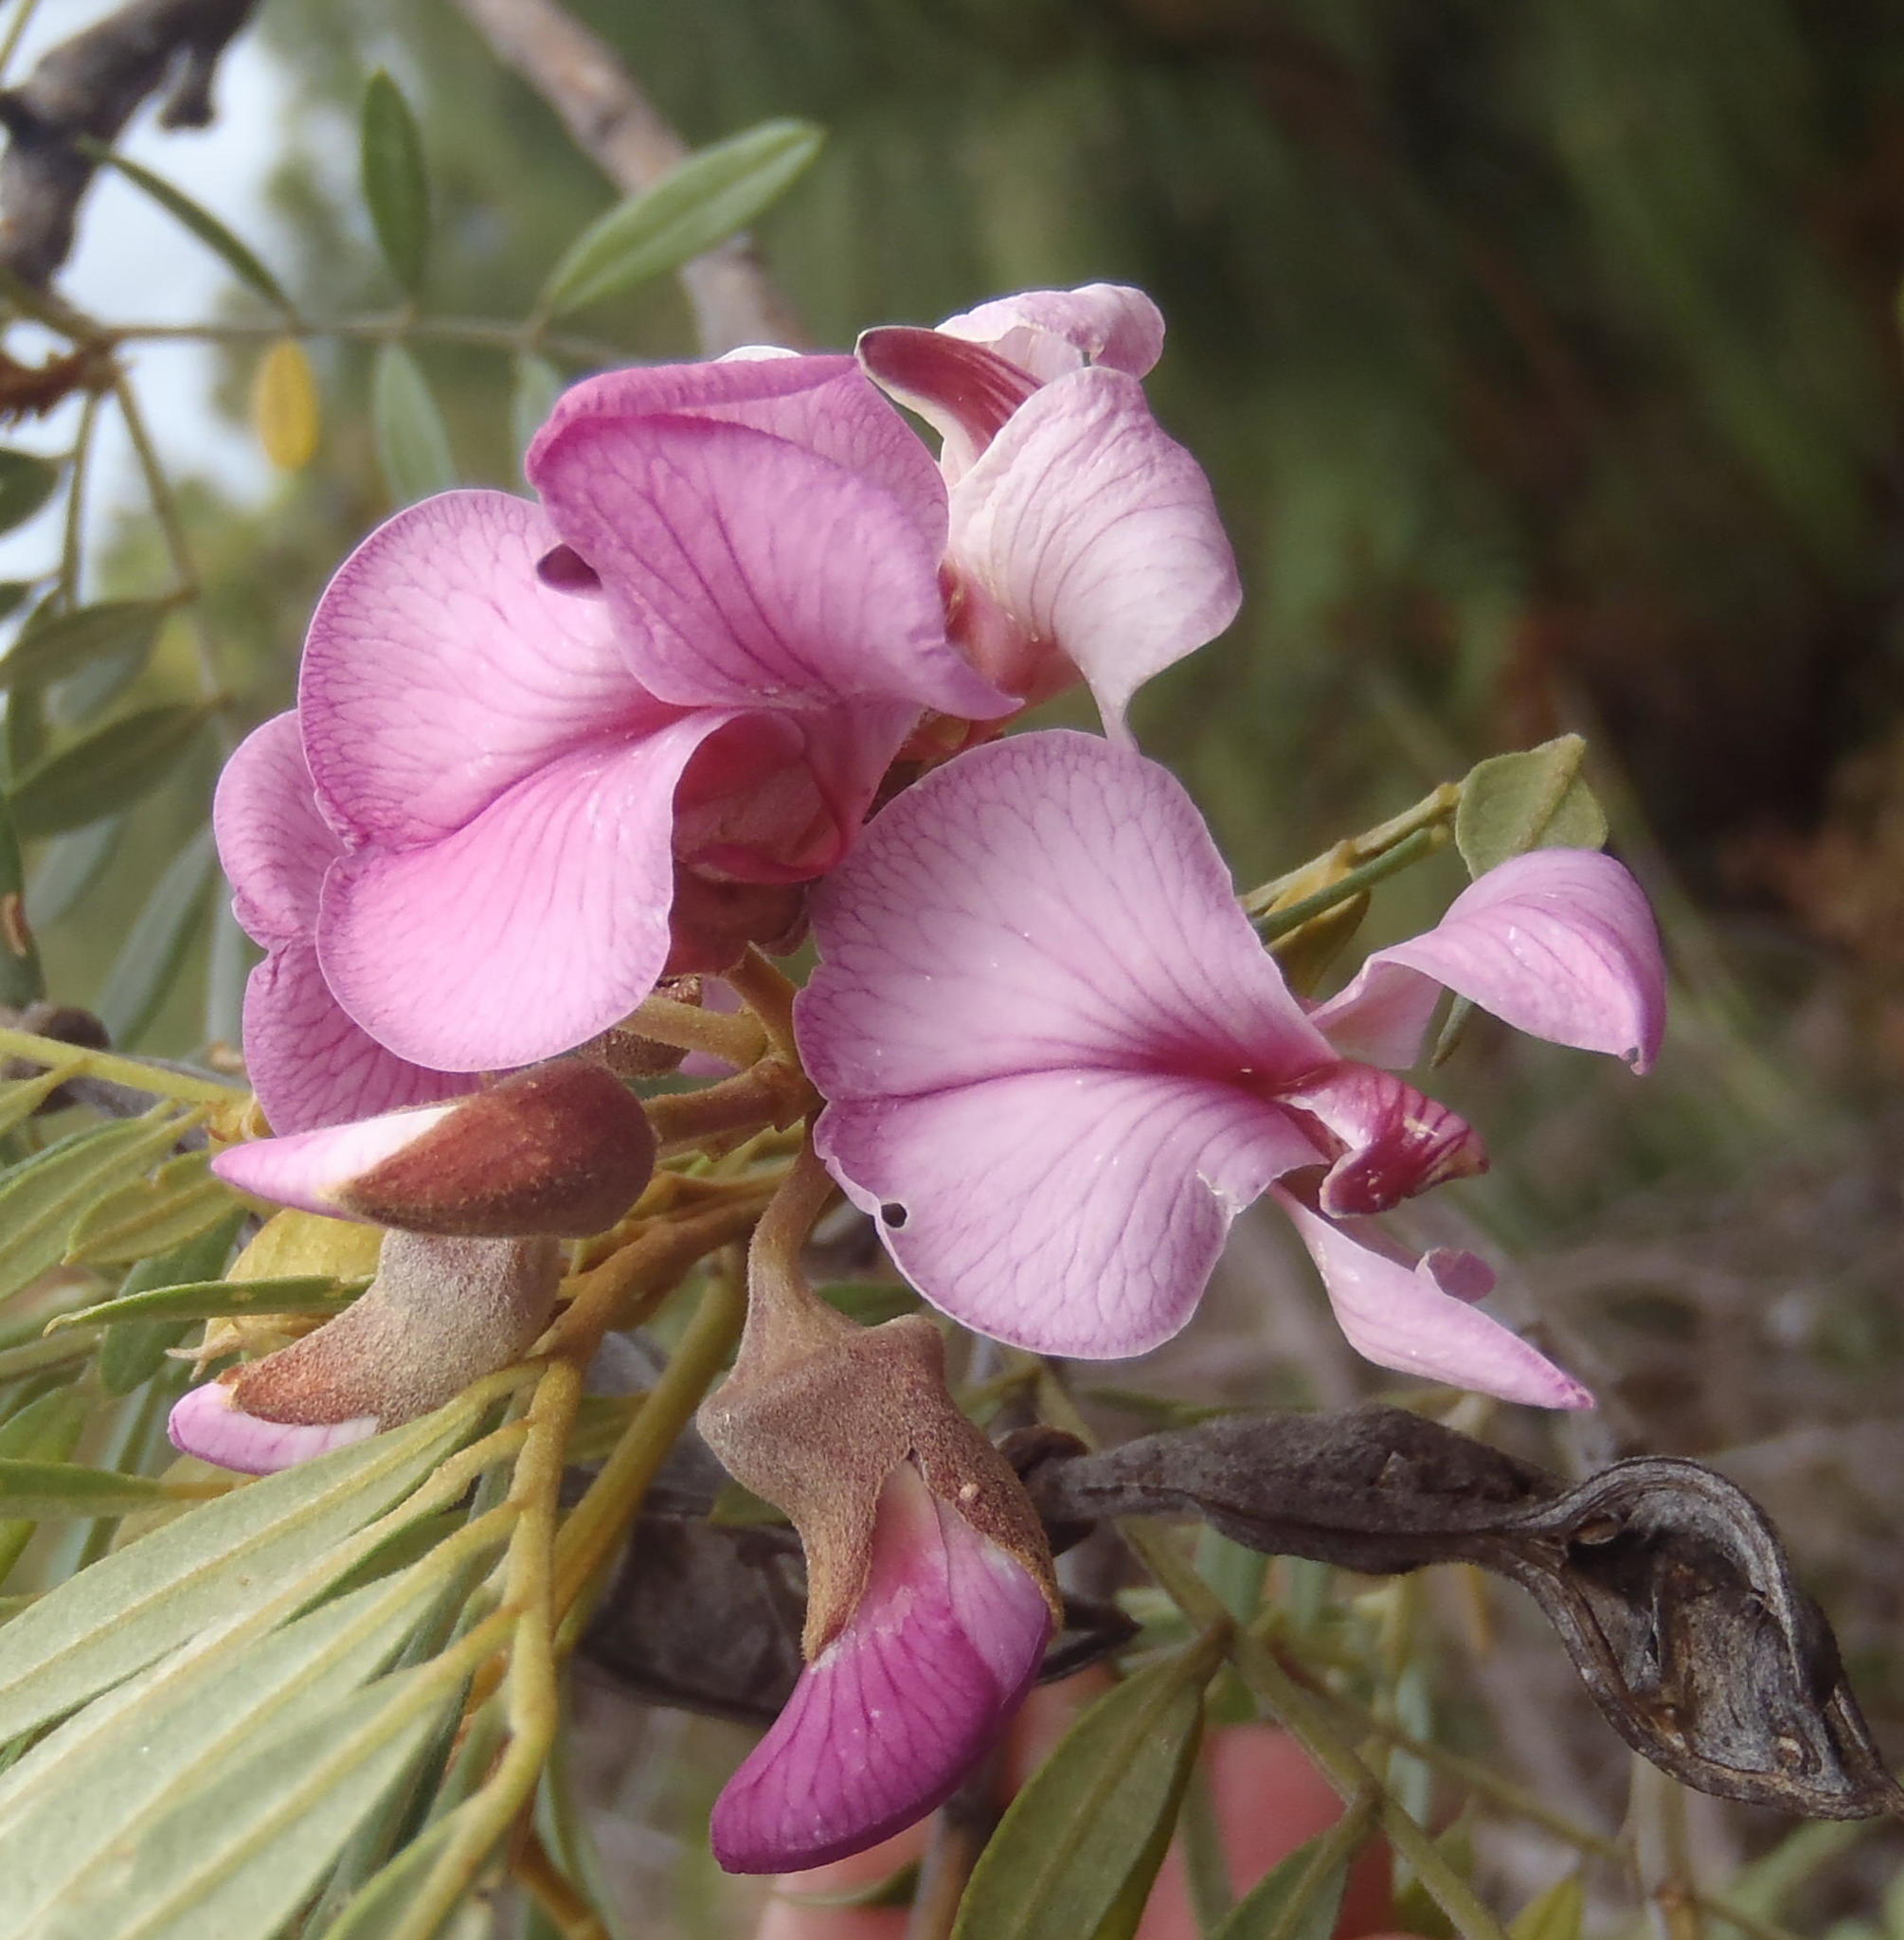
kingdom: Plantae
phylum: Tracheophyta
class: Magnoliopsida
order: Fabales
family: Fabaceae
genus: Virgilia
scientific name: Virgilia oroboides
